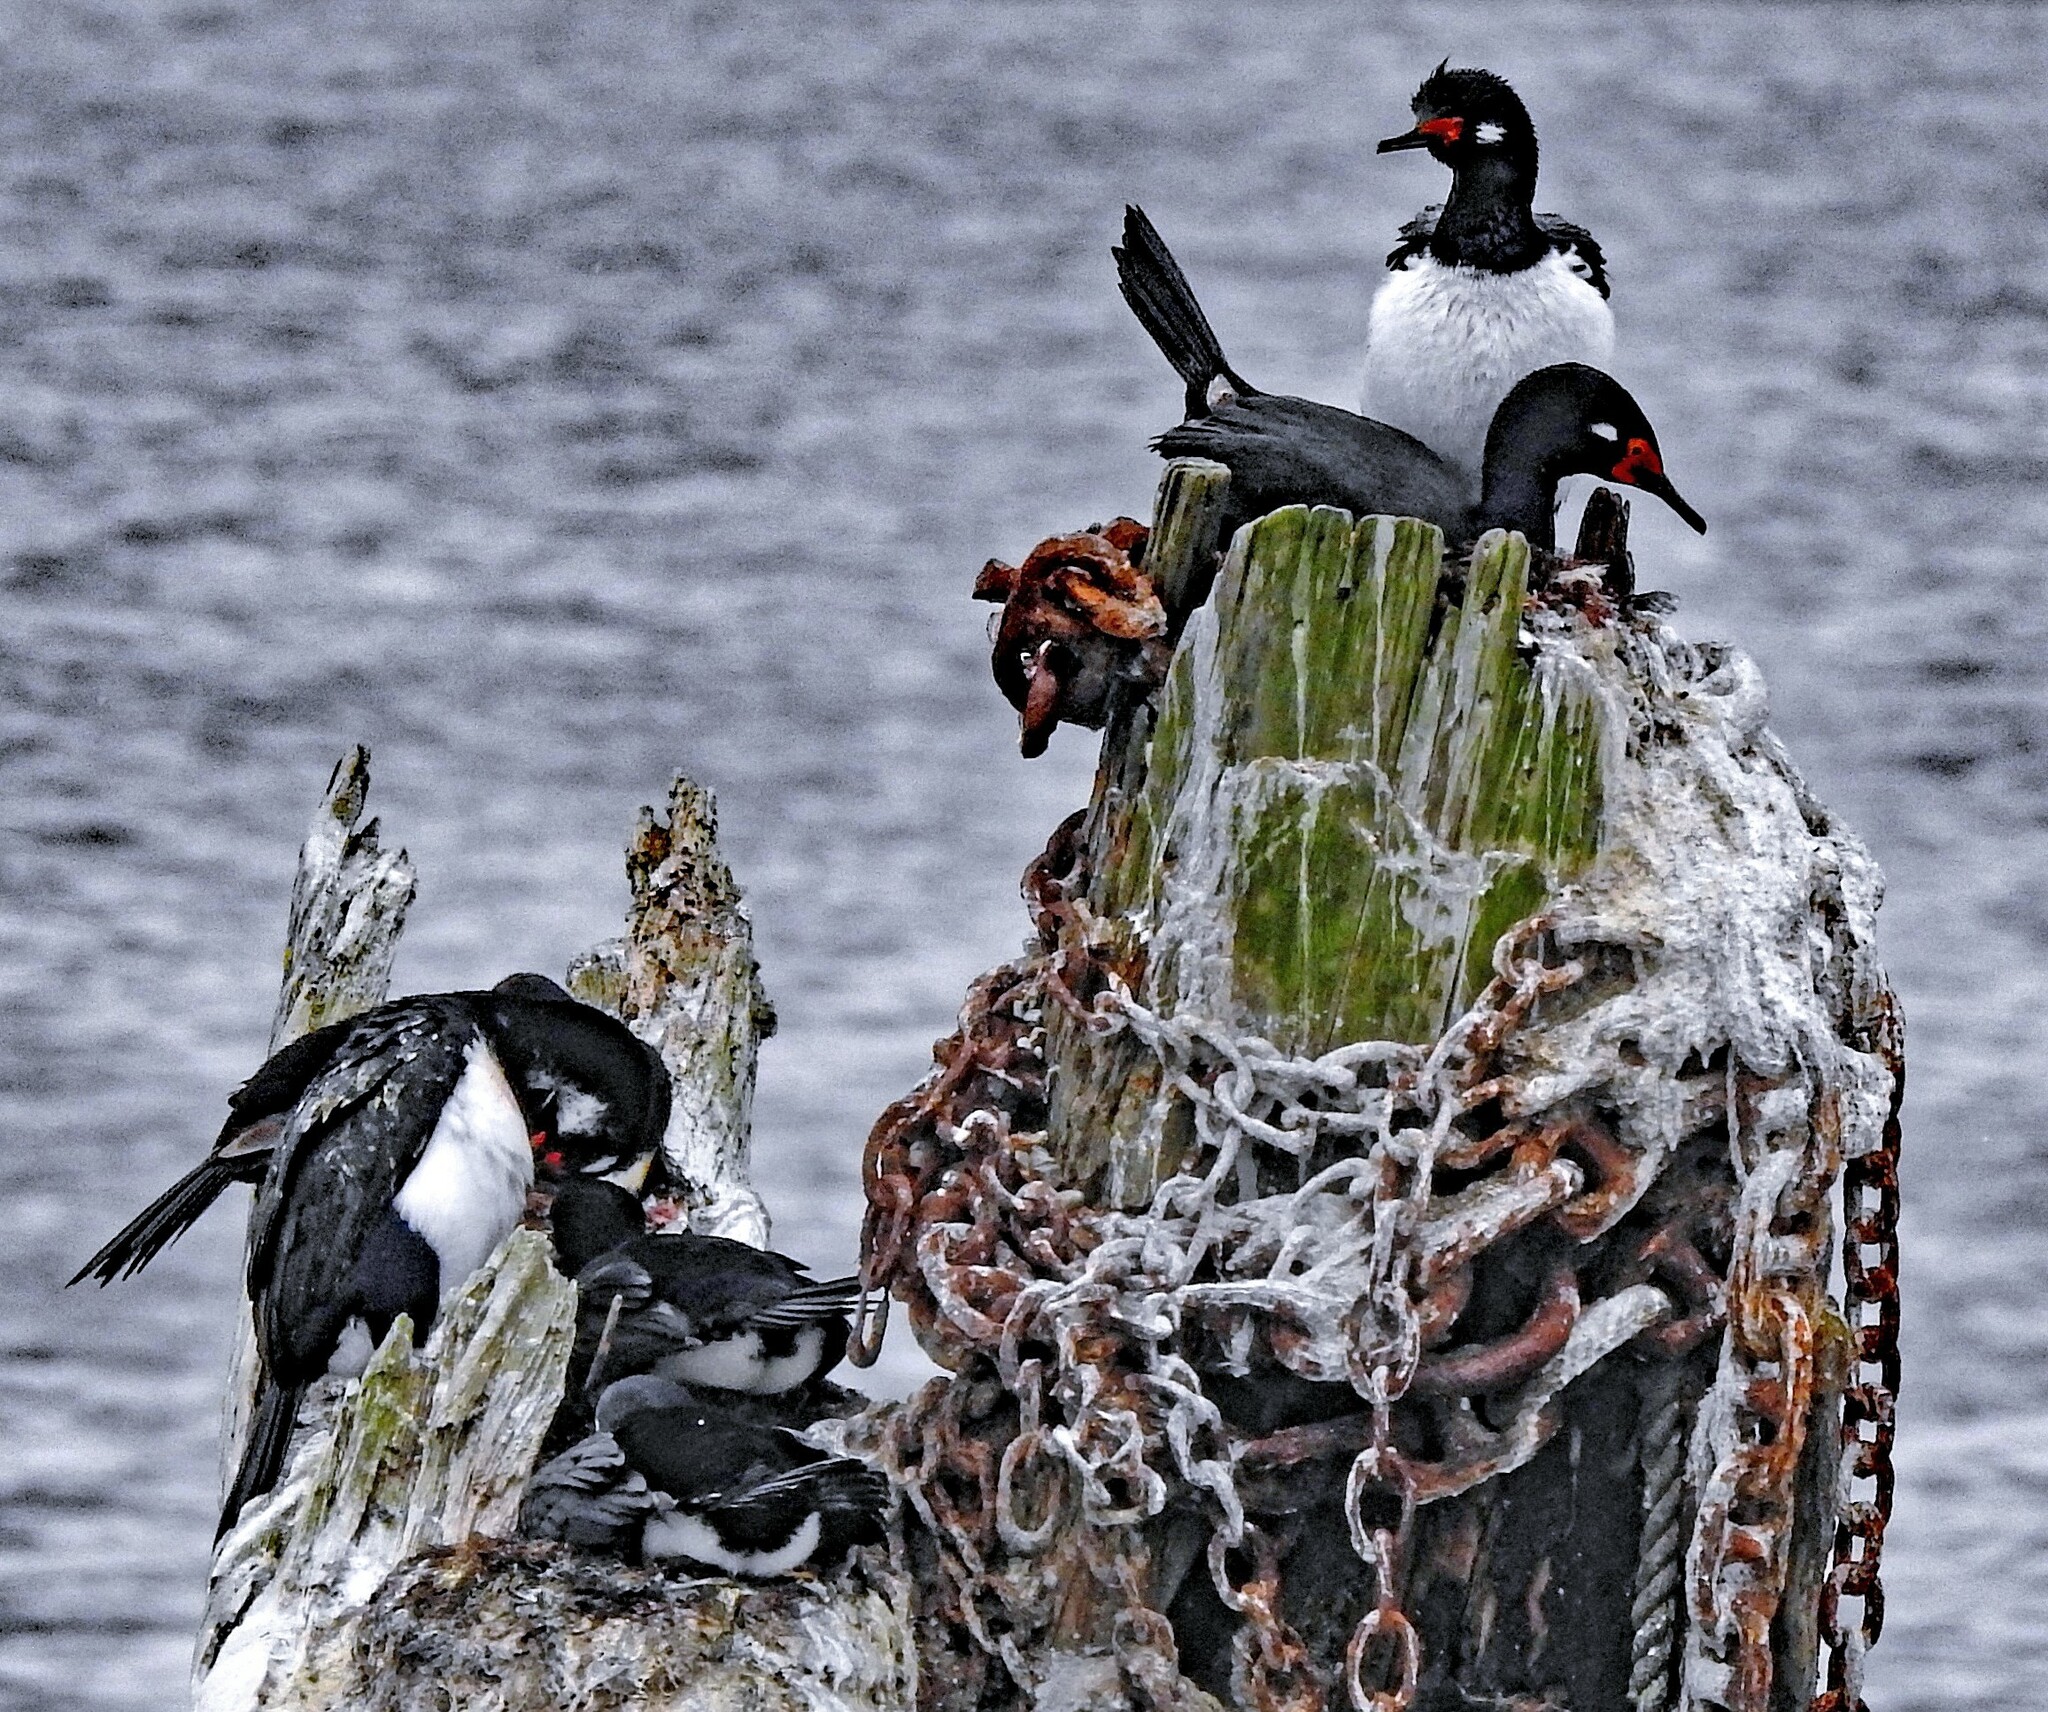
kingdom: Animalia
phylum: Chordata
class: Aves
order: Suliformes
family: Phalacrocoracidae
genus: Phalacrocorax
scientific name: Phalacrocorax magellanicus
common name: Rock shag
